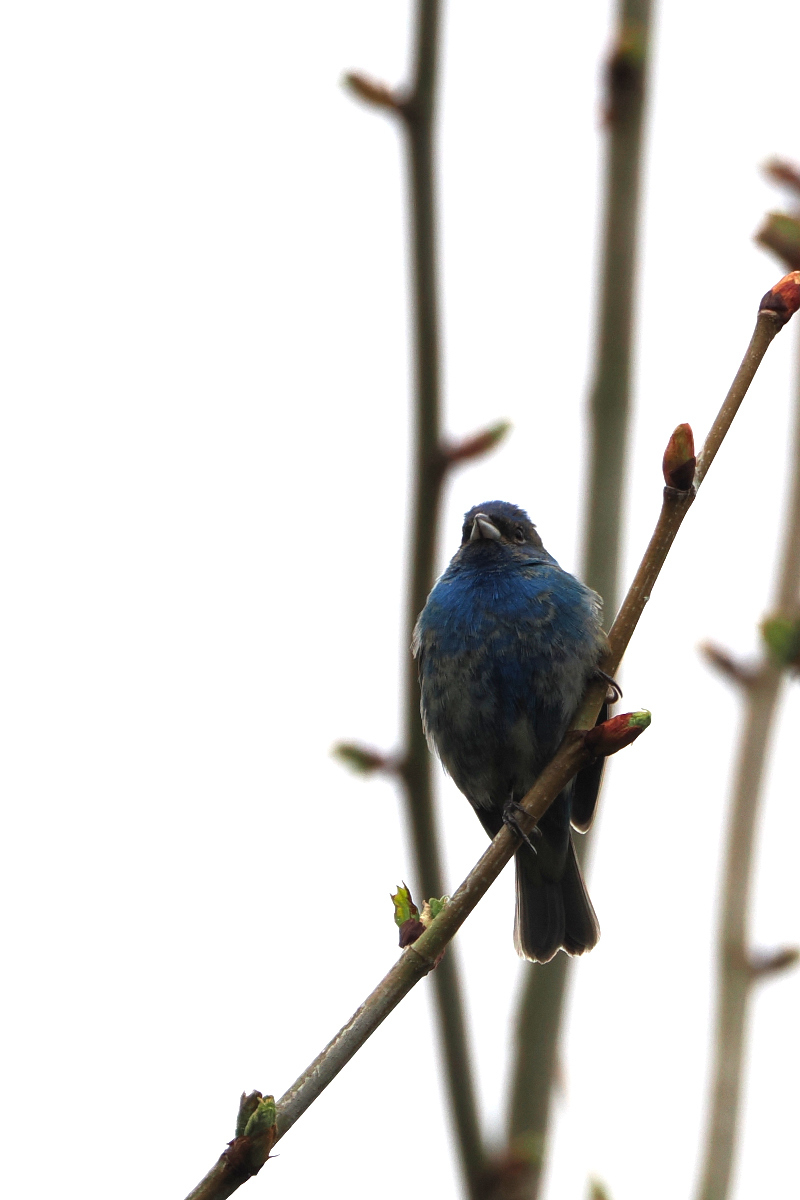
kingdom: Animalia
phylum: Chordata
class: Aves
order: Passeriformes
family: Cardinalidae
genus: Passerina
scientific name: Passerina cyanea
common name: Indigo bunting
